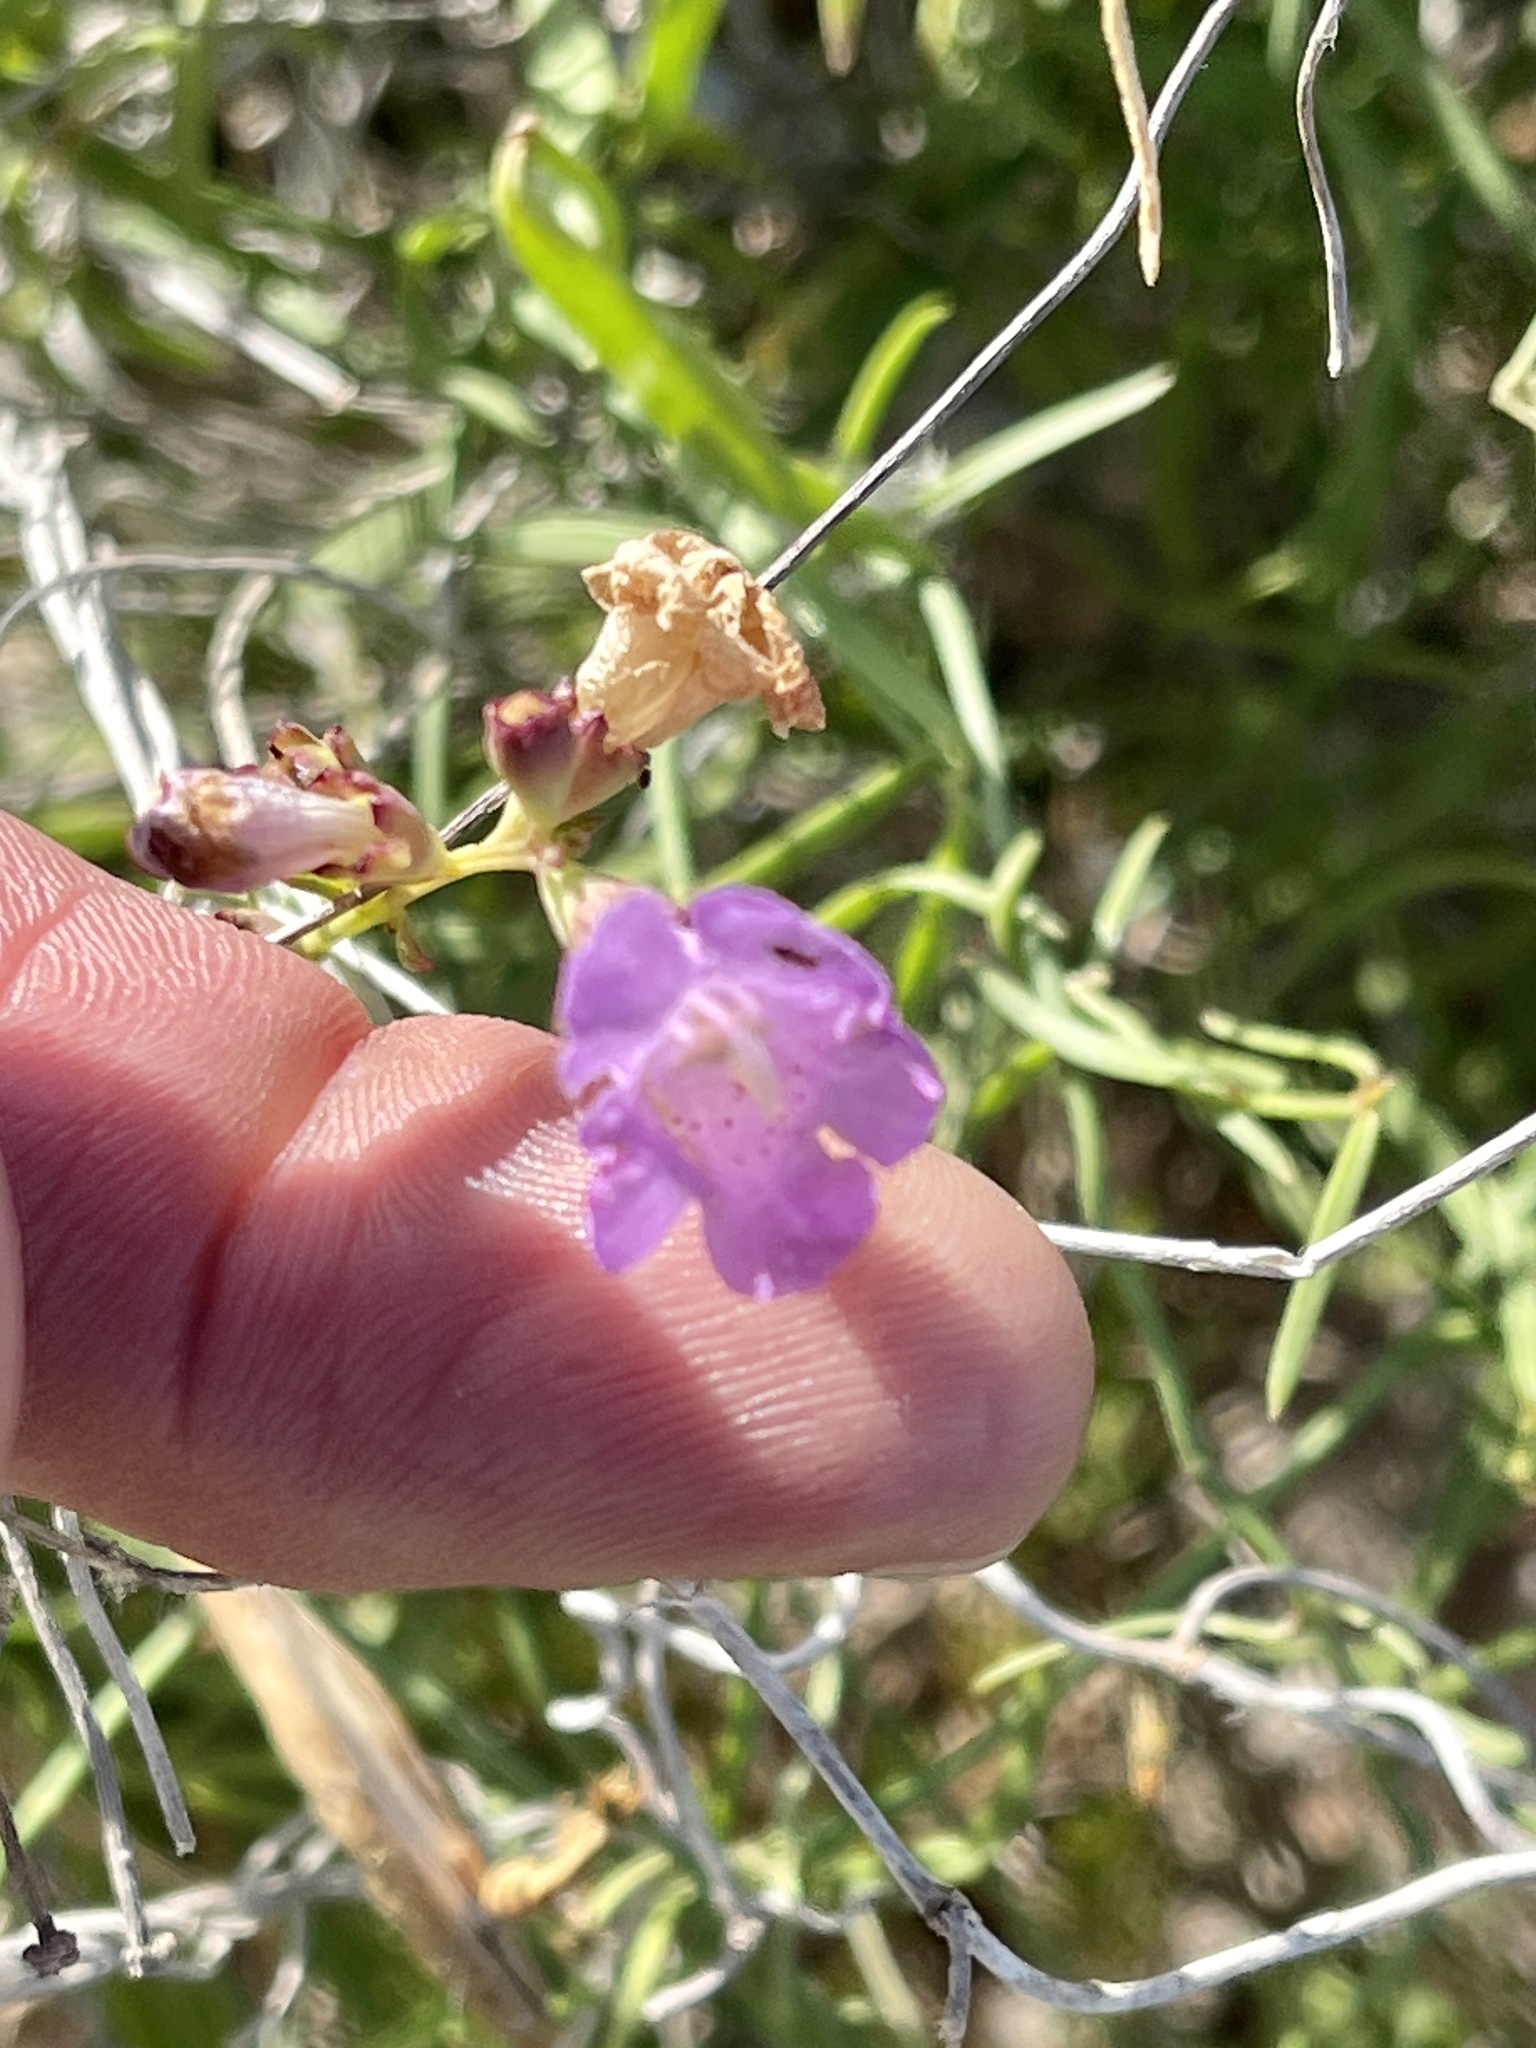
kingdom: Plantae
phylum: Tracheophyta
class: Magnoliopsida
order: Lamiales
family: Orobanchaceae
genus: Agalinis
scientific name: Agalinis maritima
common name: Saltmarsh agalinis
